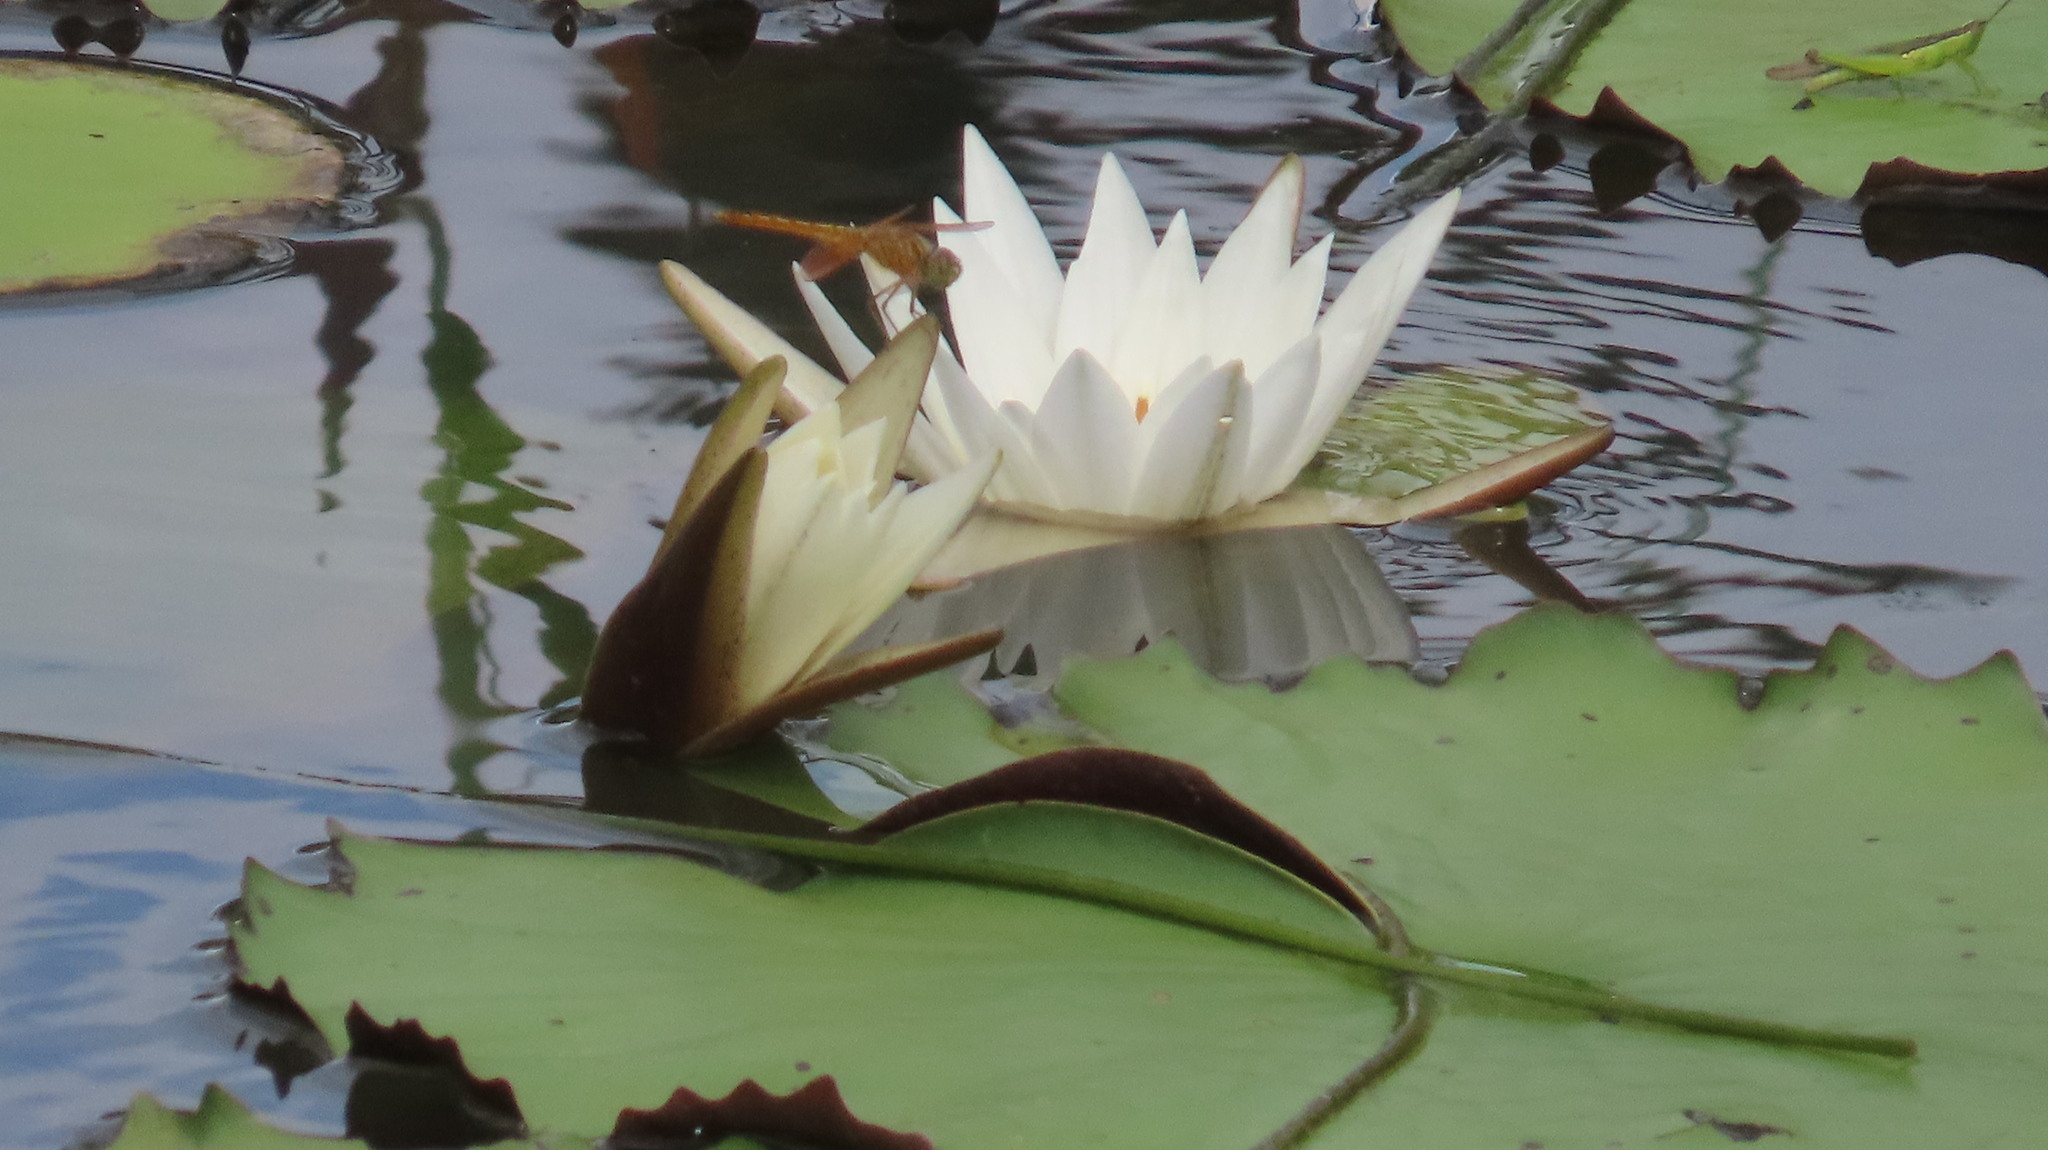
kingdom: Animalia
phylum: Arthropoda
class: Insecta
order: Odonata
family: Libellulidae
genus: Brachythemis
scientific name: Brachythemis contaminata
